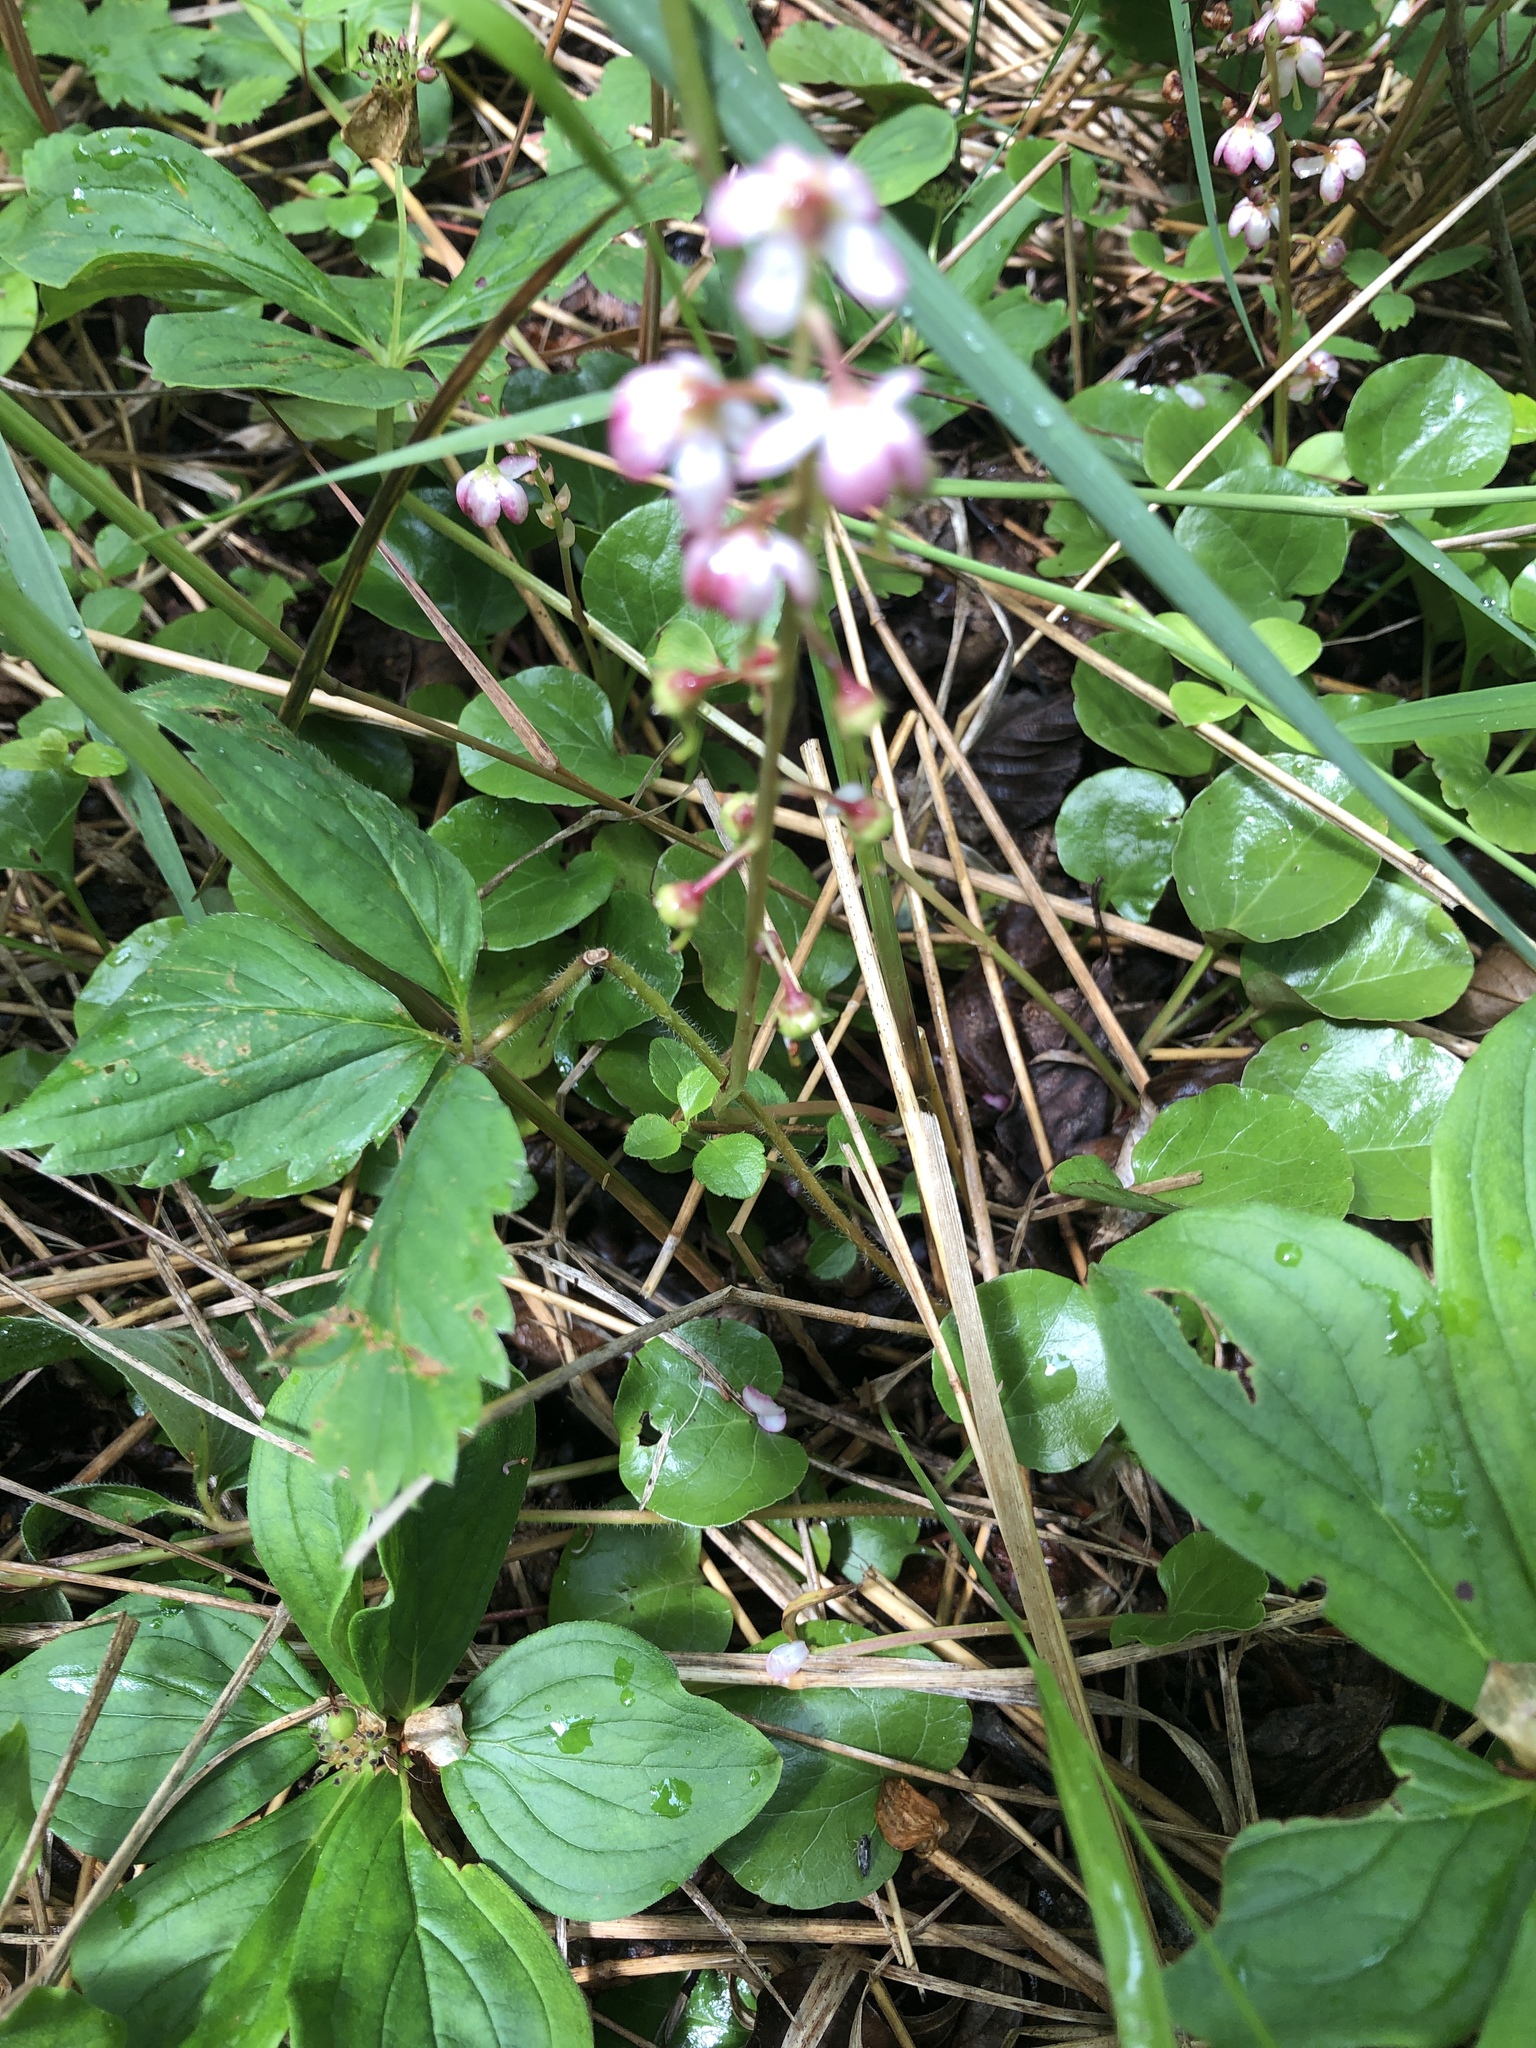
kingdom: Plantae
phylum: Tracheophyta
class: Magnoliopsida
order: Ericales
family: Ericaceae
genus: Pyrola
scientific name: Pyrola asarifolia
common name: Bog wintergreen
